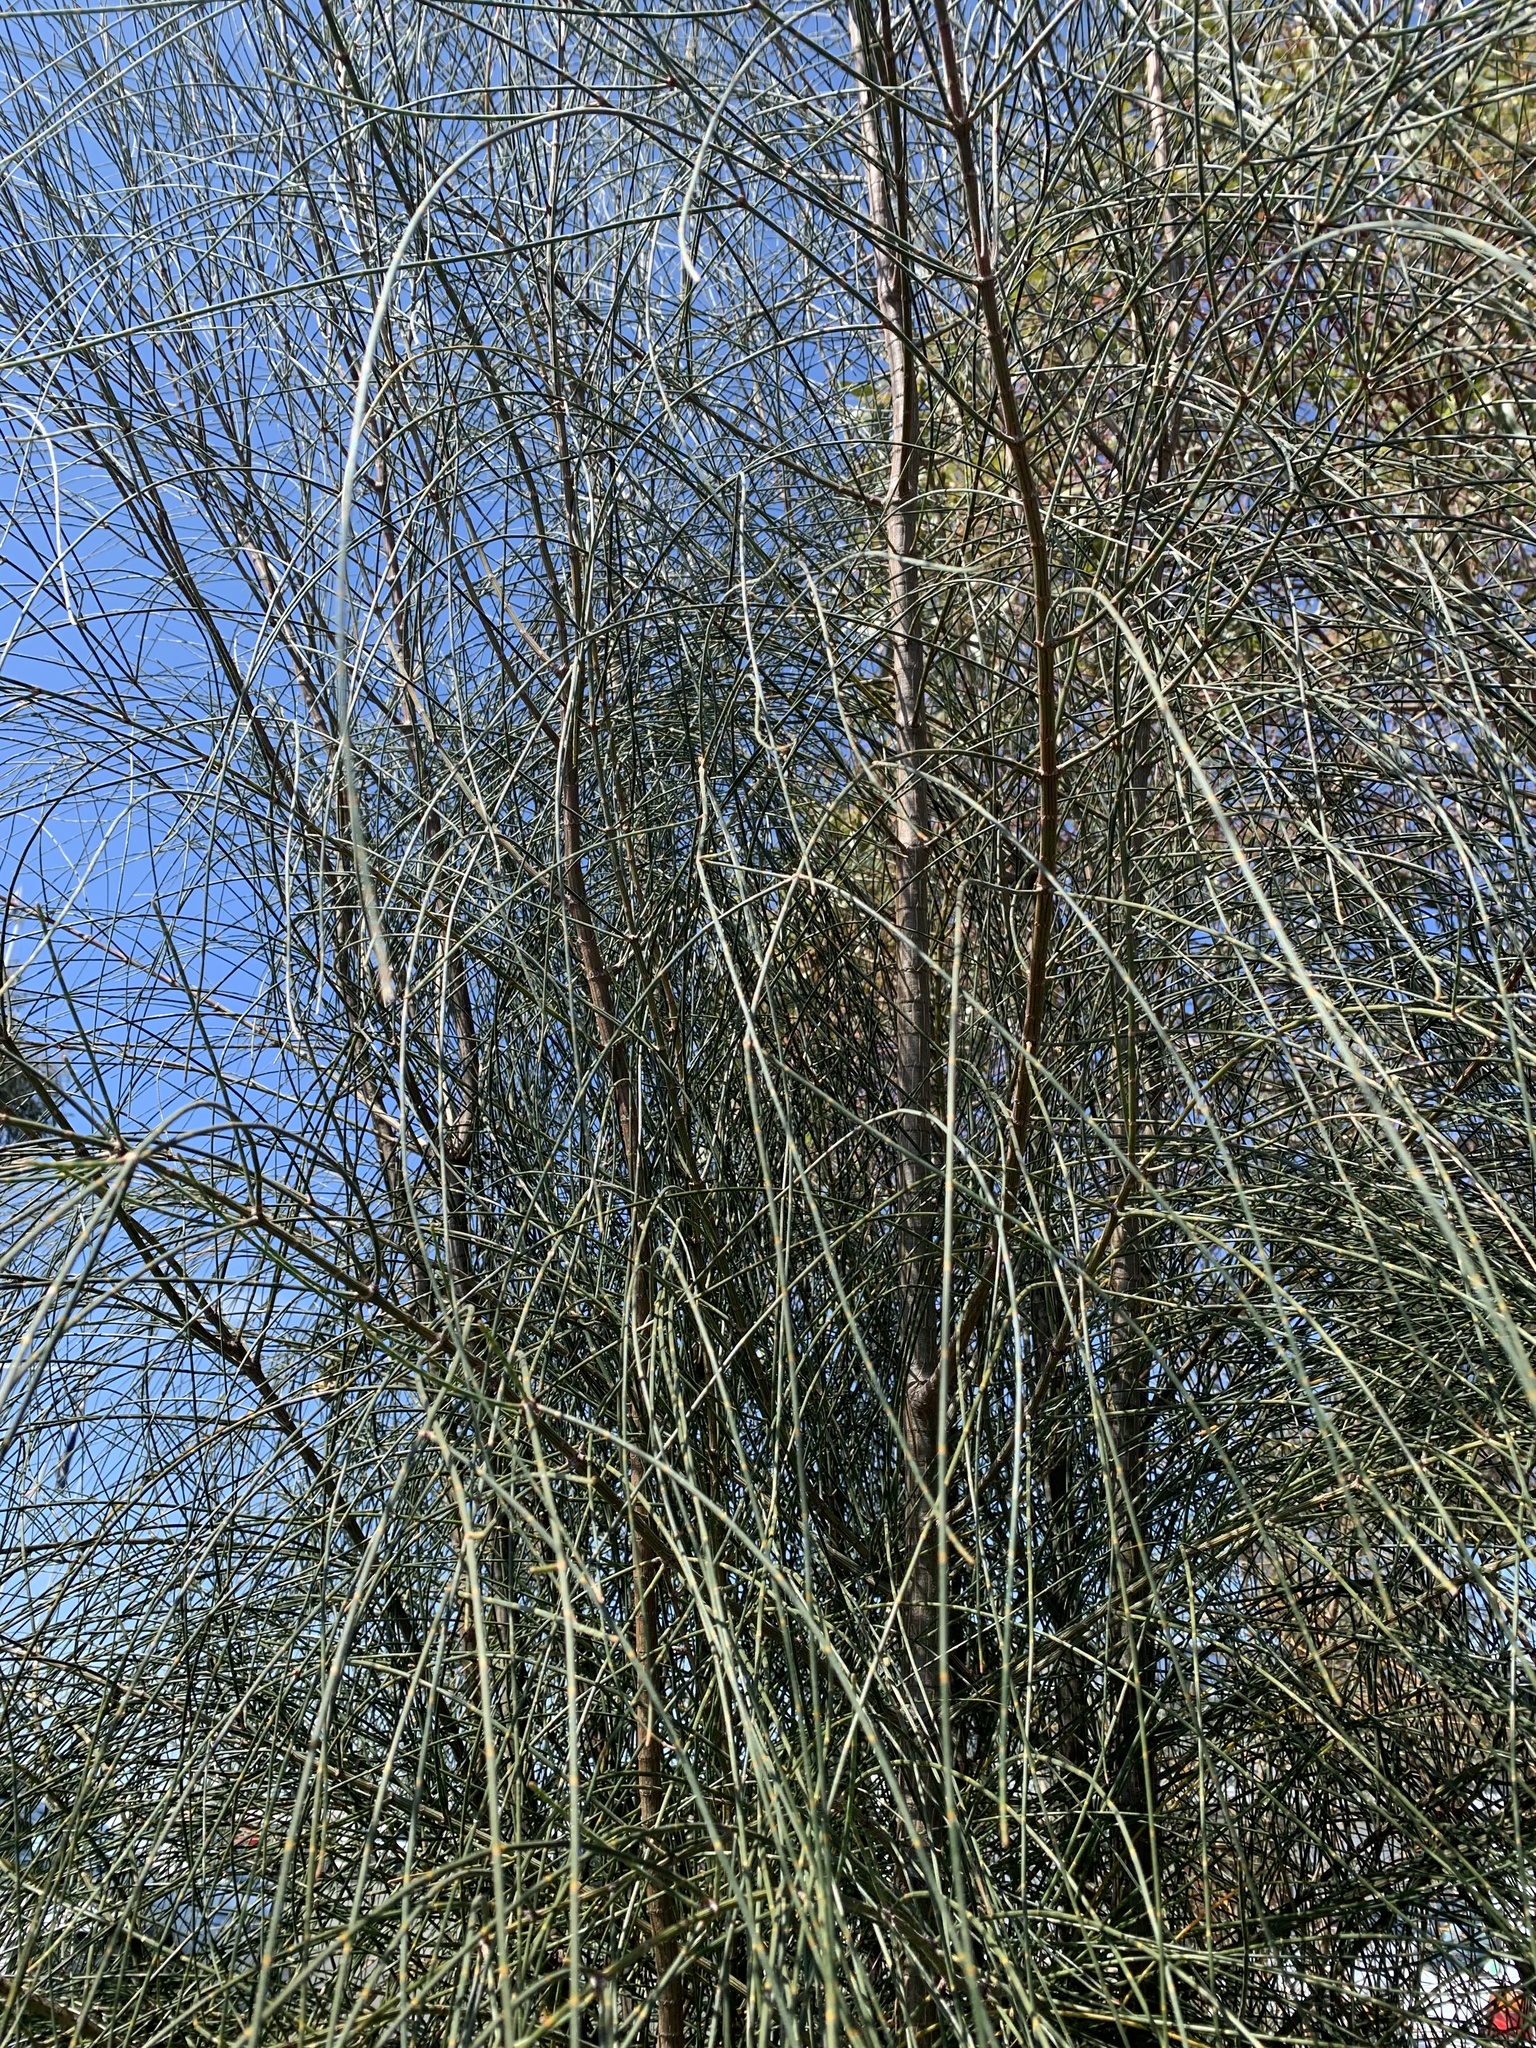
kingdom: Plantae
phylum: Tracheophyta
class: Magnoliopsida
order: Fagales
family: Casuarinaceae
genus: Allocasuarina
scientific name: Allocasuarina verticillata
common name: Drooping she-oak
